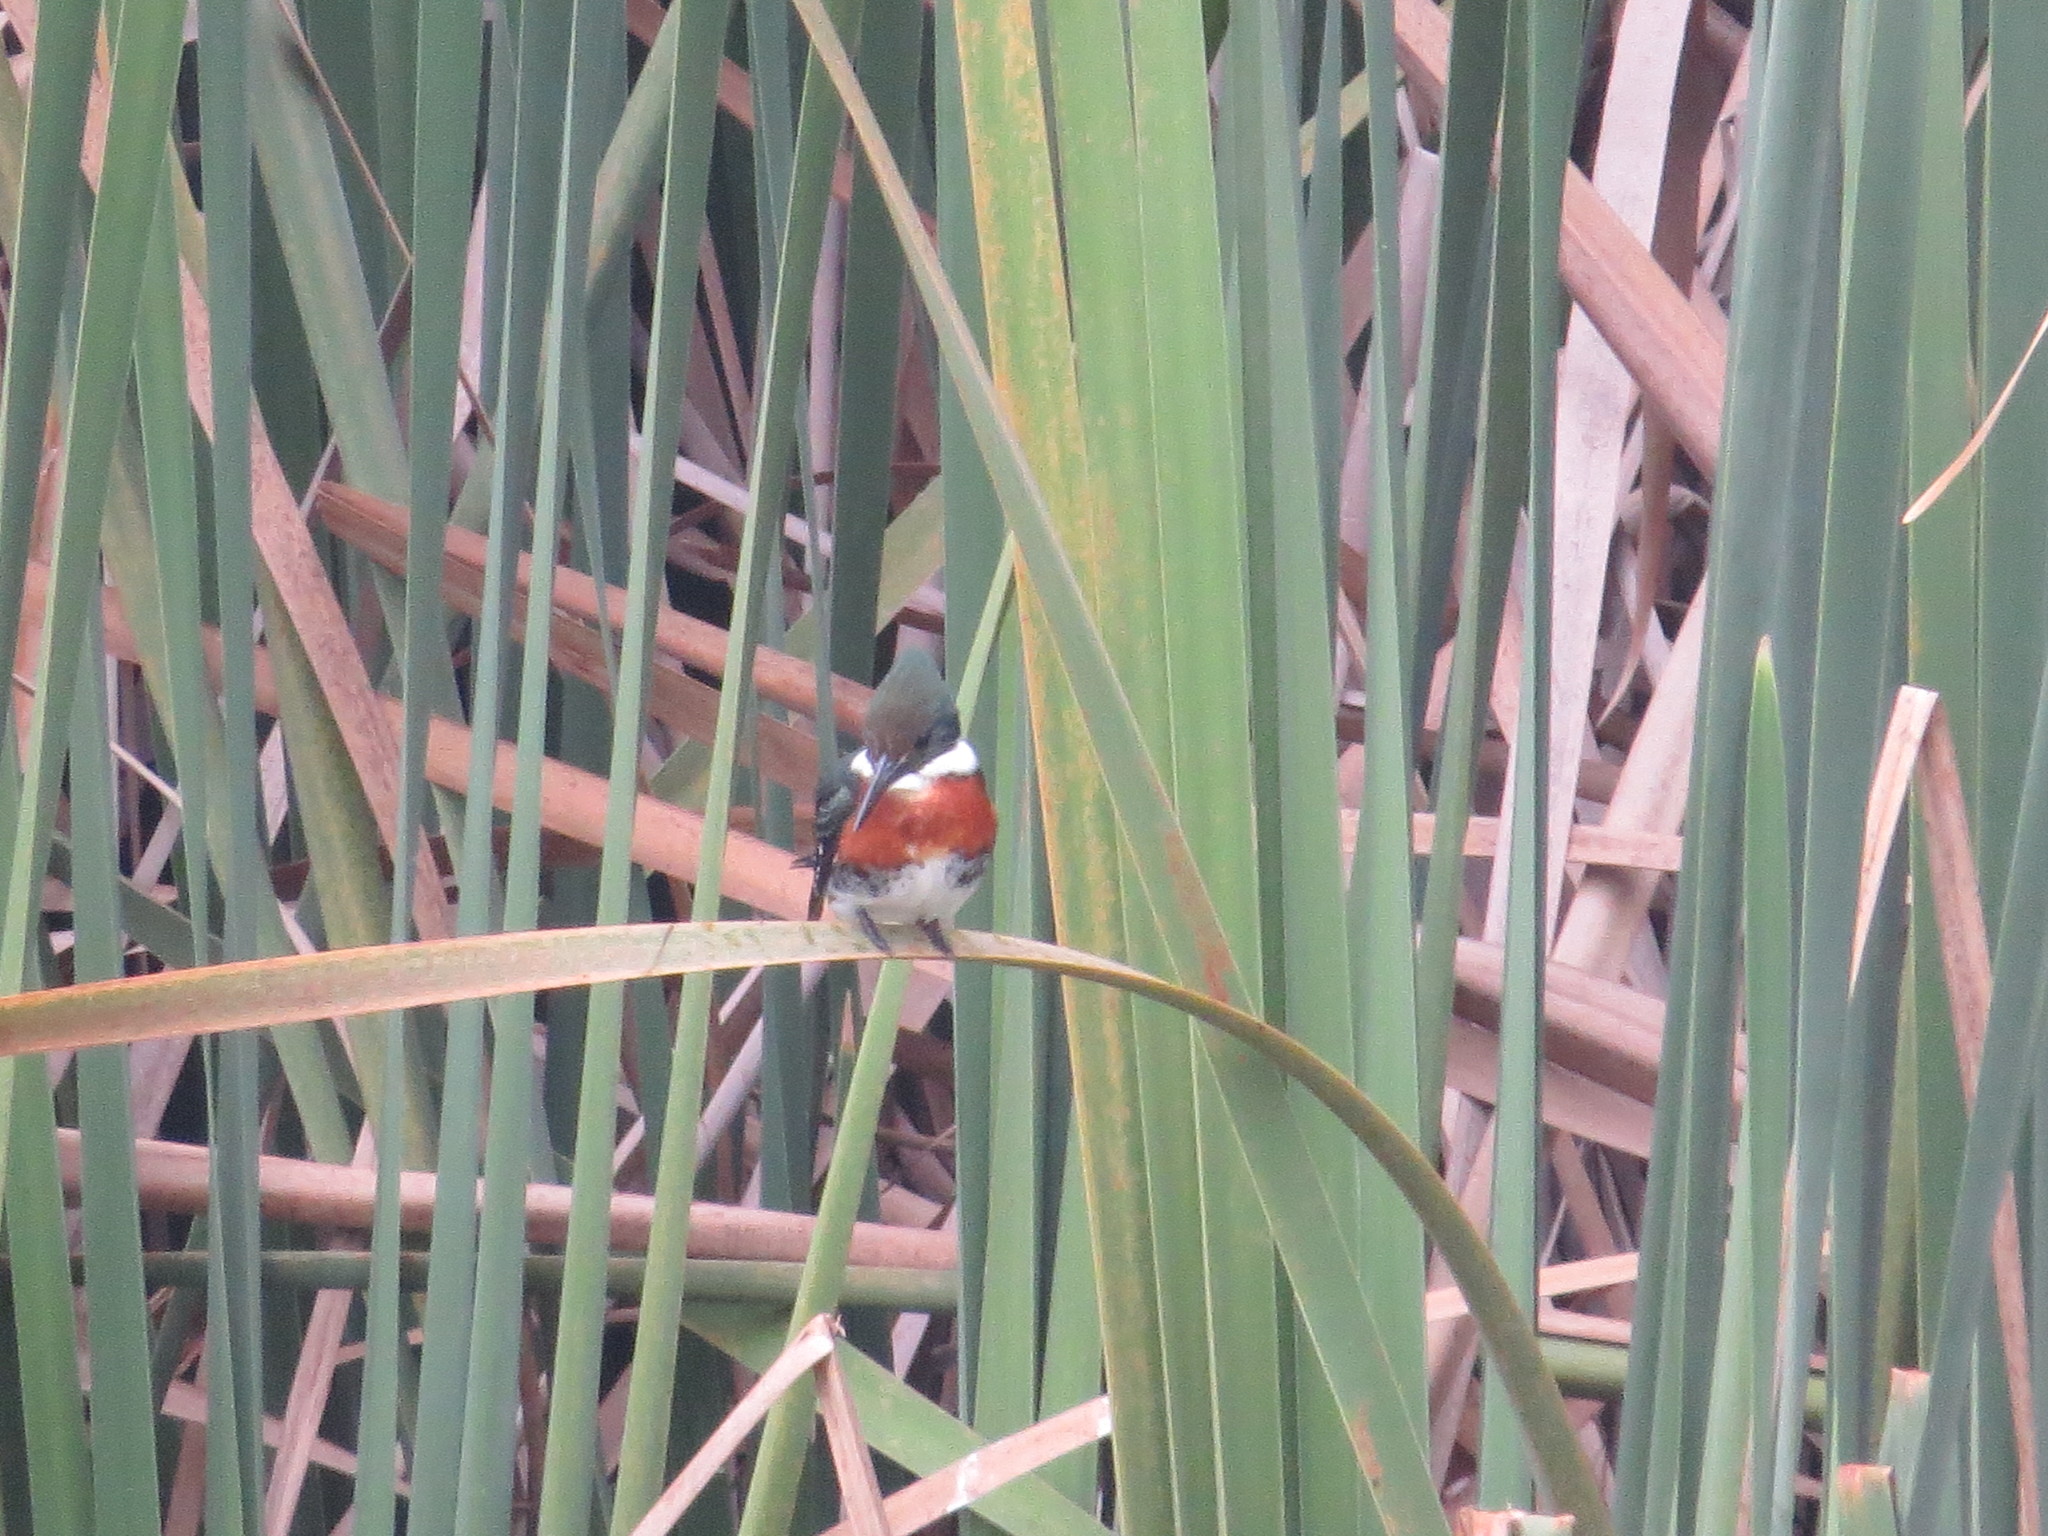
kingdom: Animalia
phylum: Chordata
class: Aves
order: Coraciiformes
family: Alcedinidae
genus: Chloroceryle
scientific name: Chloroceryle americana
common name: Green kingfisher
